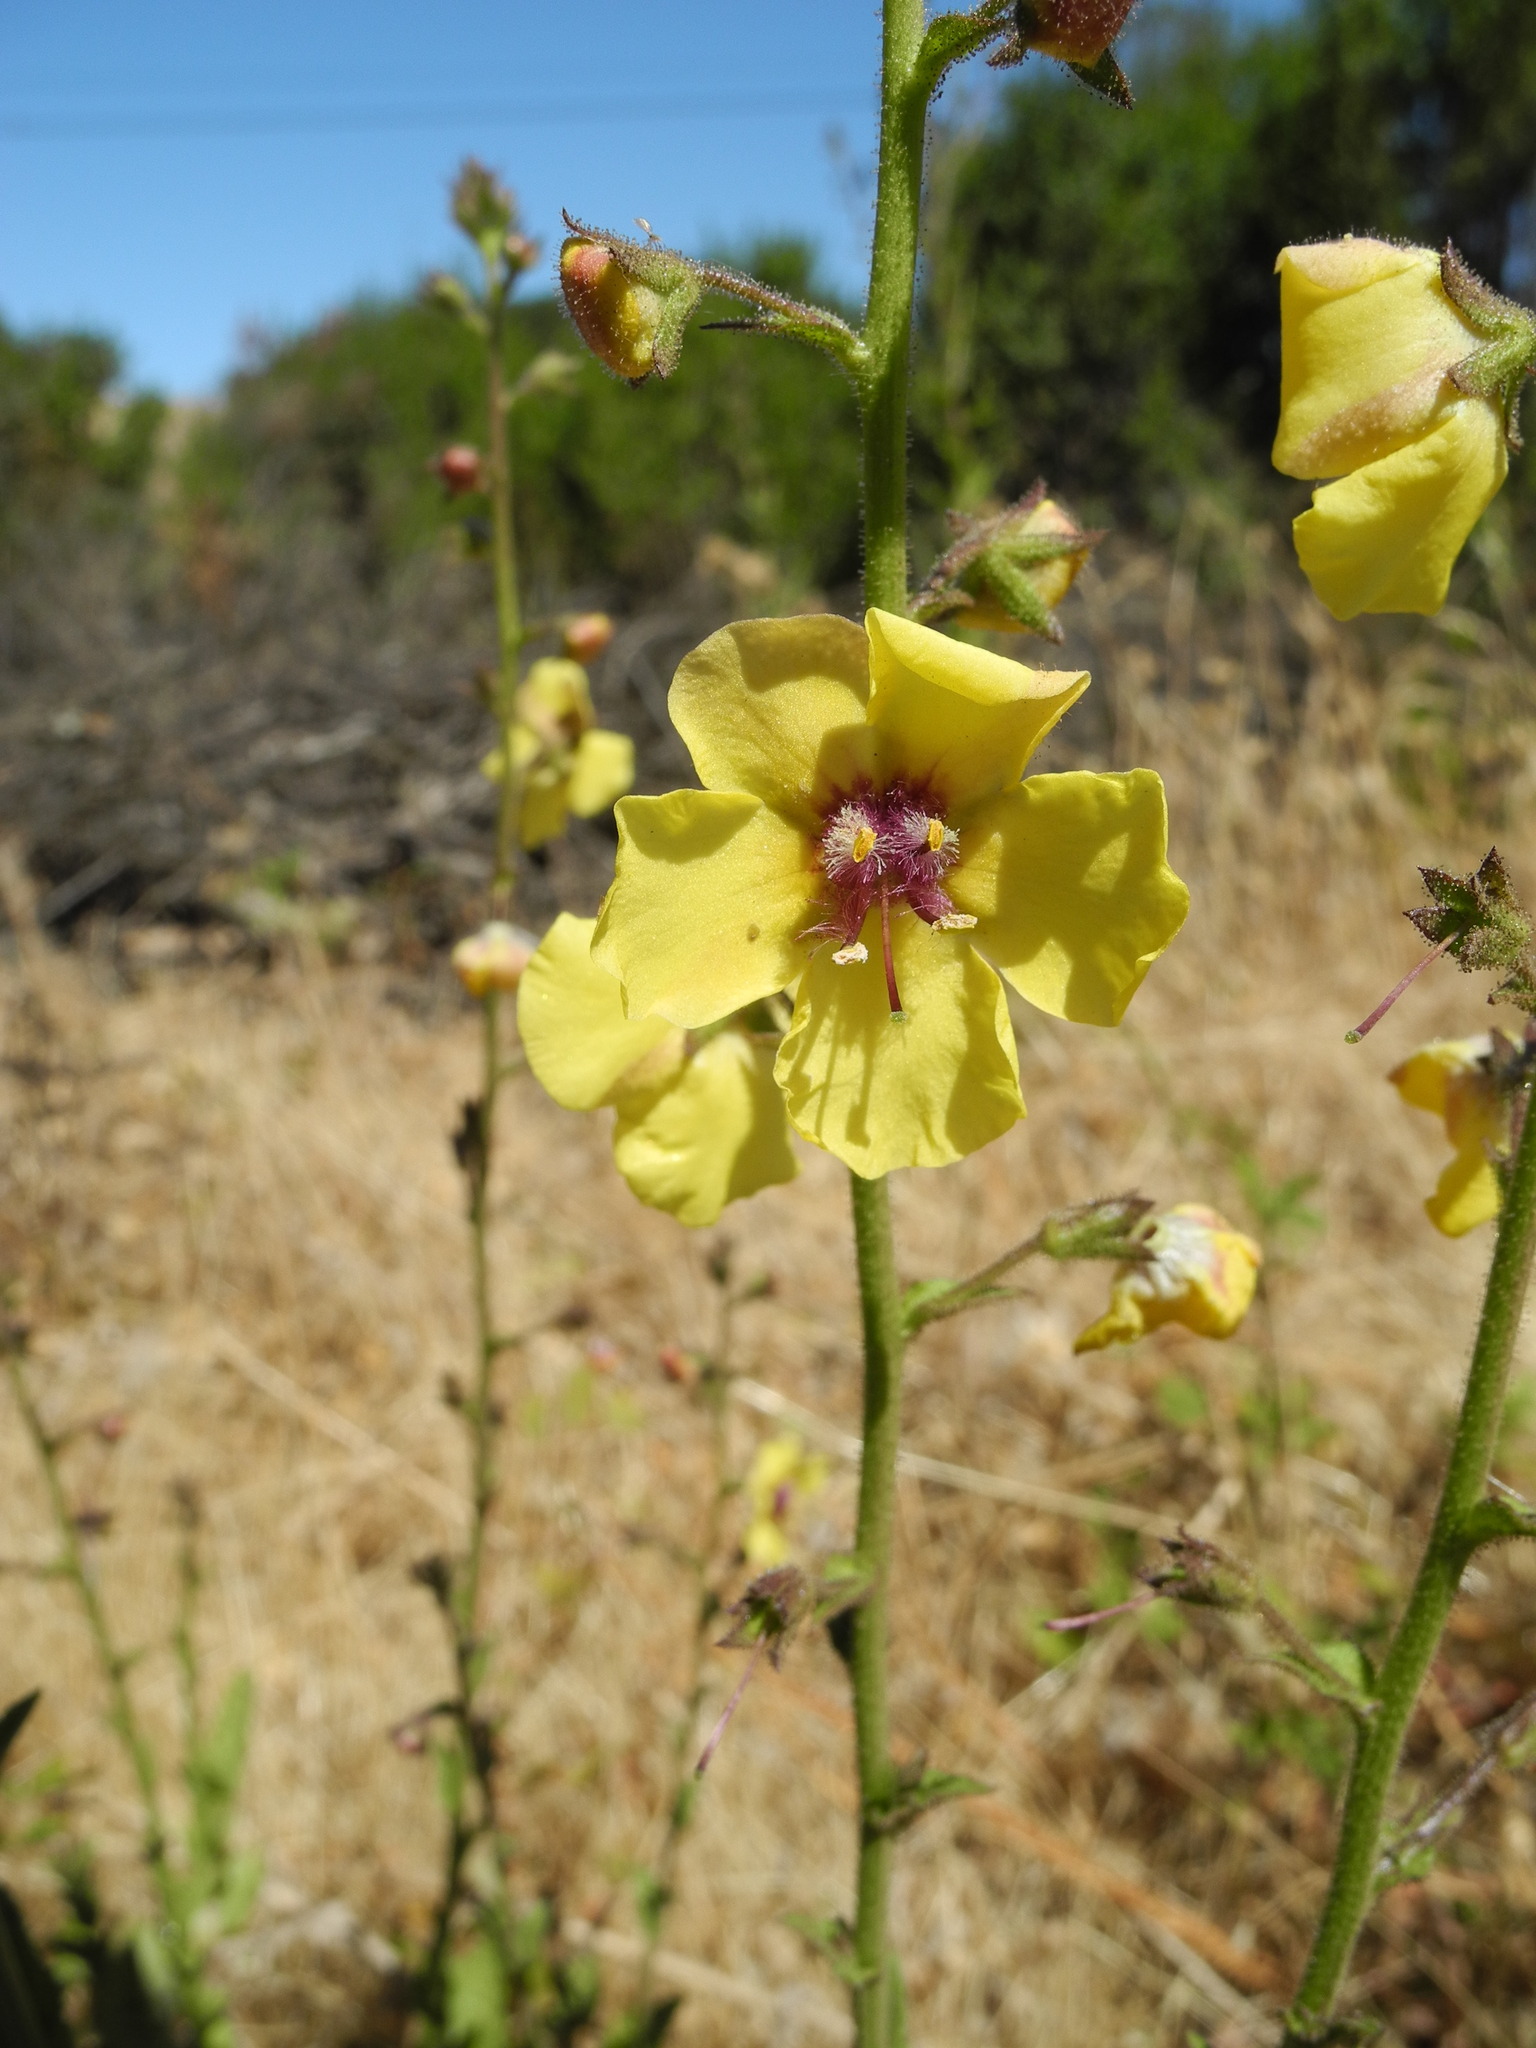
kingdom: Plantae
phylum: Tracheophyta
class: Magnoliopsida
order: Lamiales
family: Scrophulariaceae
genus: Verbascum
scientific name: Verbascum blattaria
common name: Moth mullein
